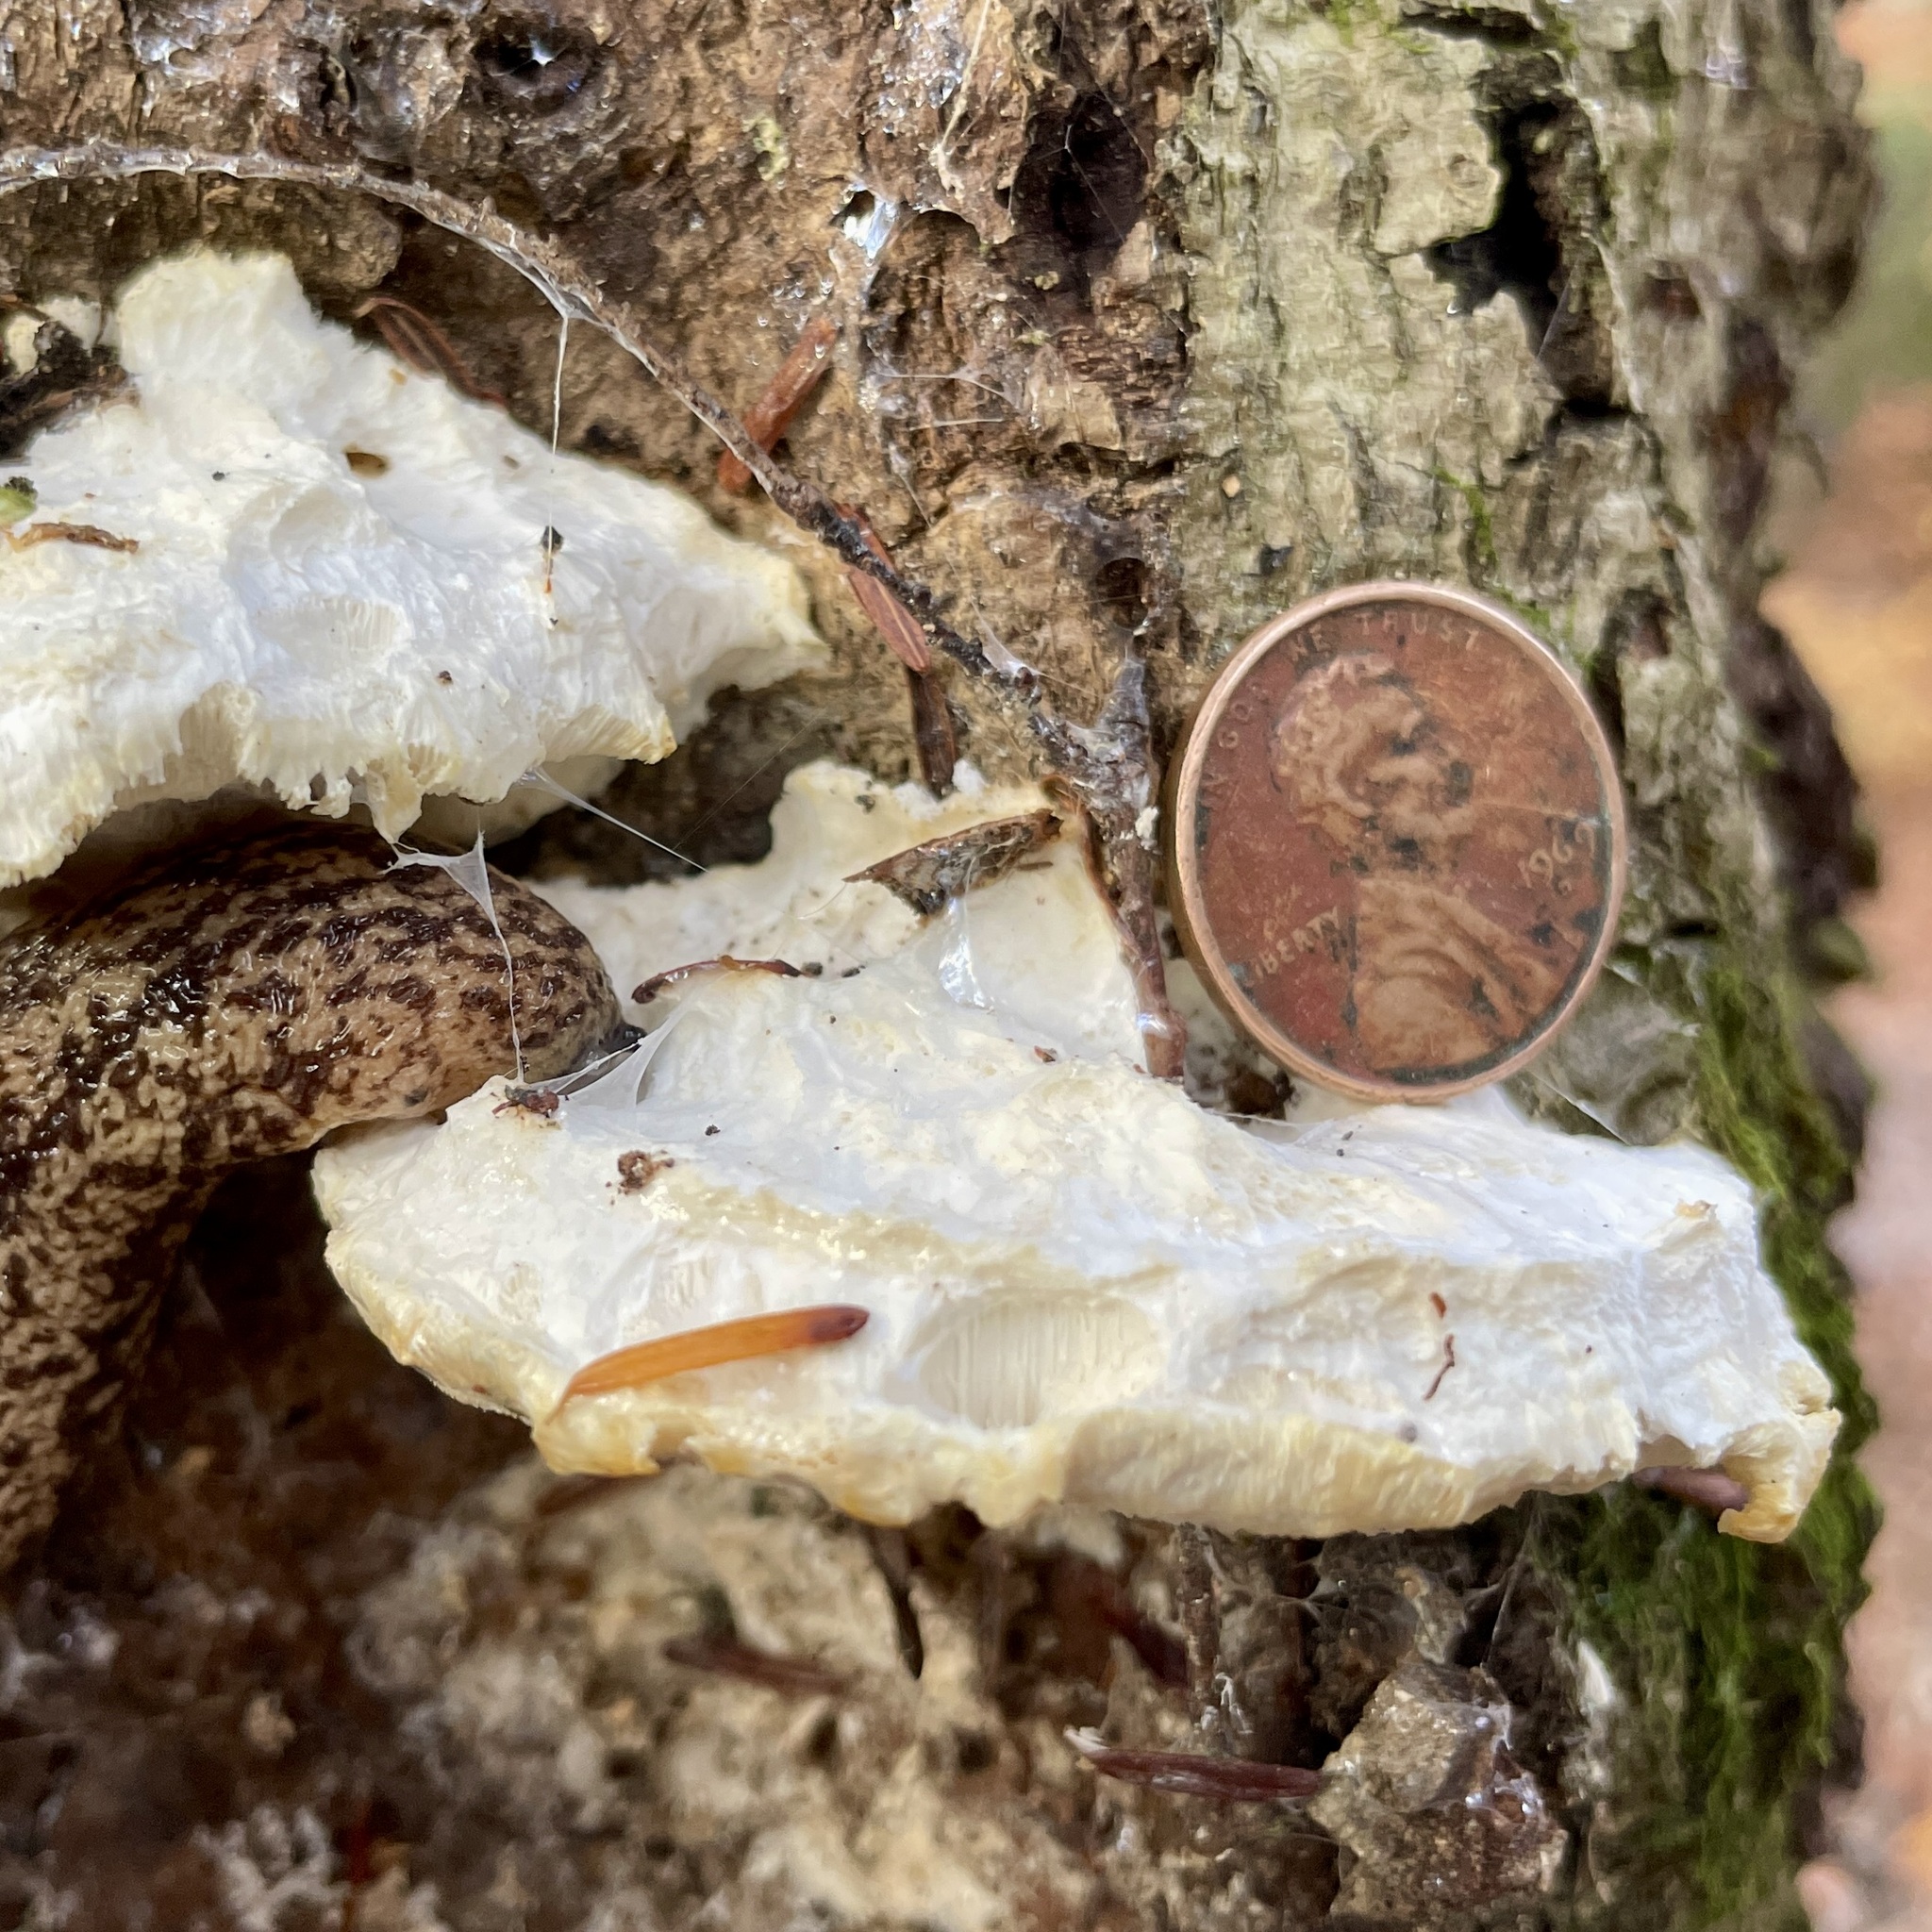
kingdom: Fungi
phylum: Basidiomycota
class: Agaricomycetes
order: Polyporales
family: Incrustoporiaceae
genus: Tyromyces
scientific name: Tyromyces chioneus
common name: White cheese polypore
